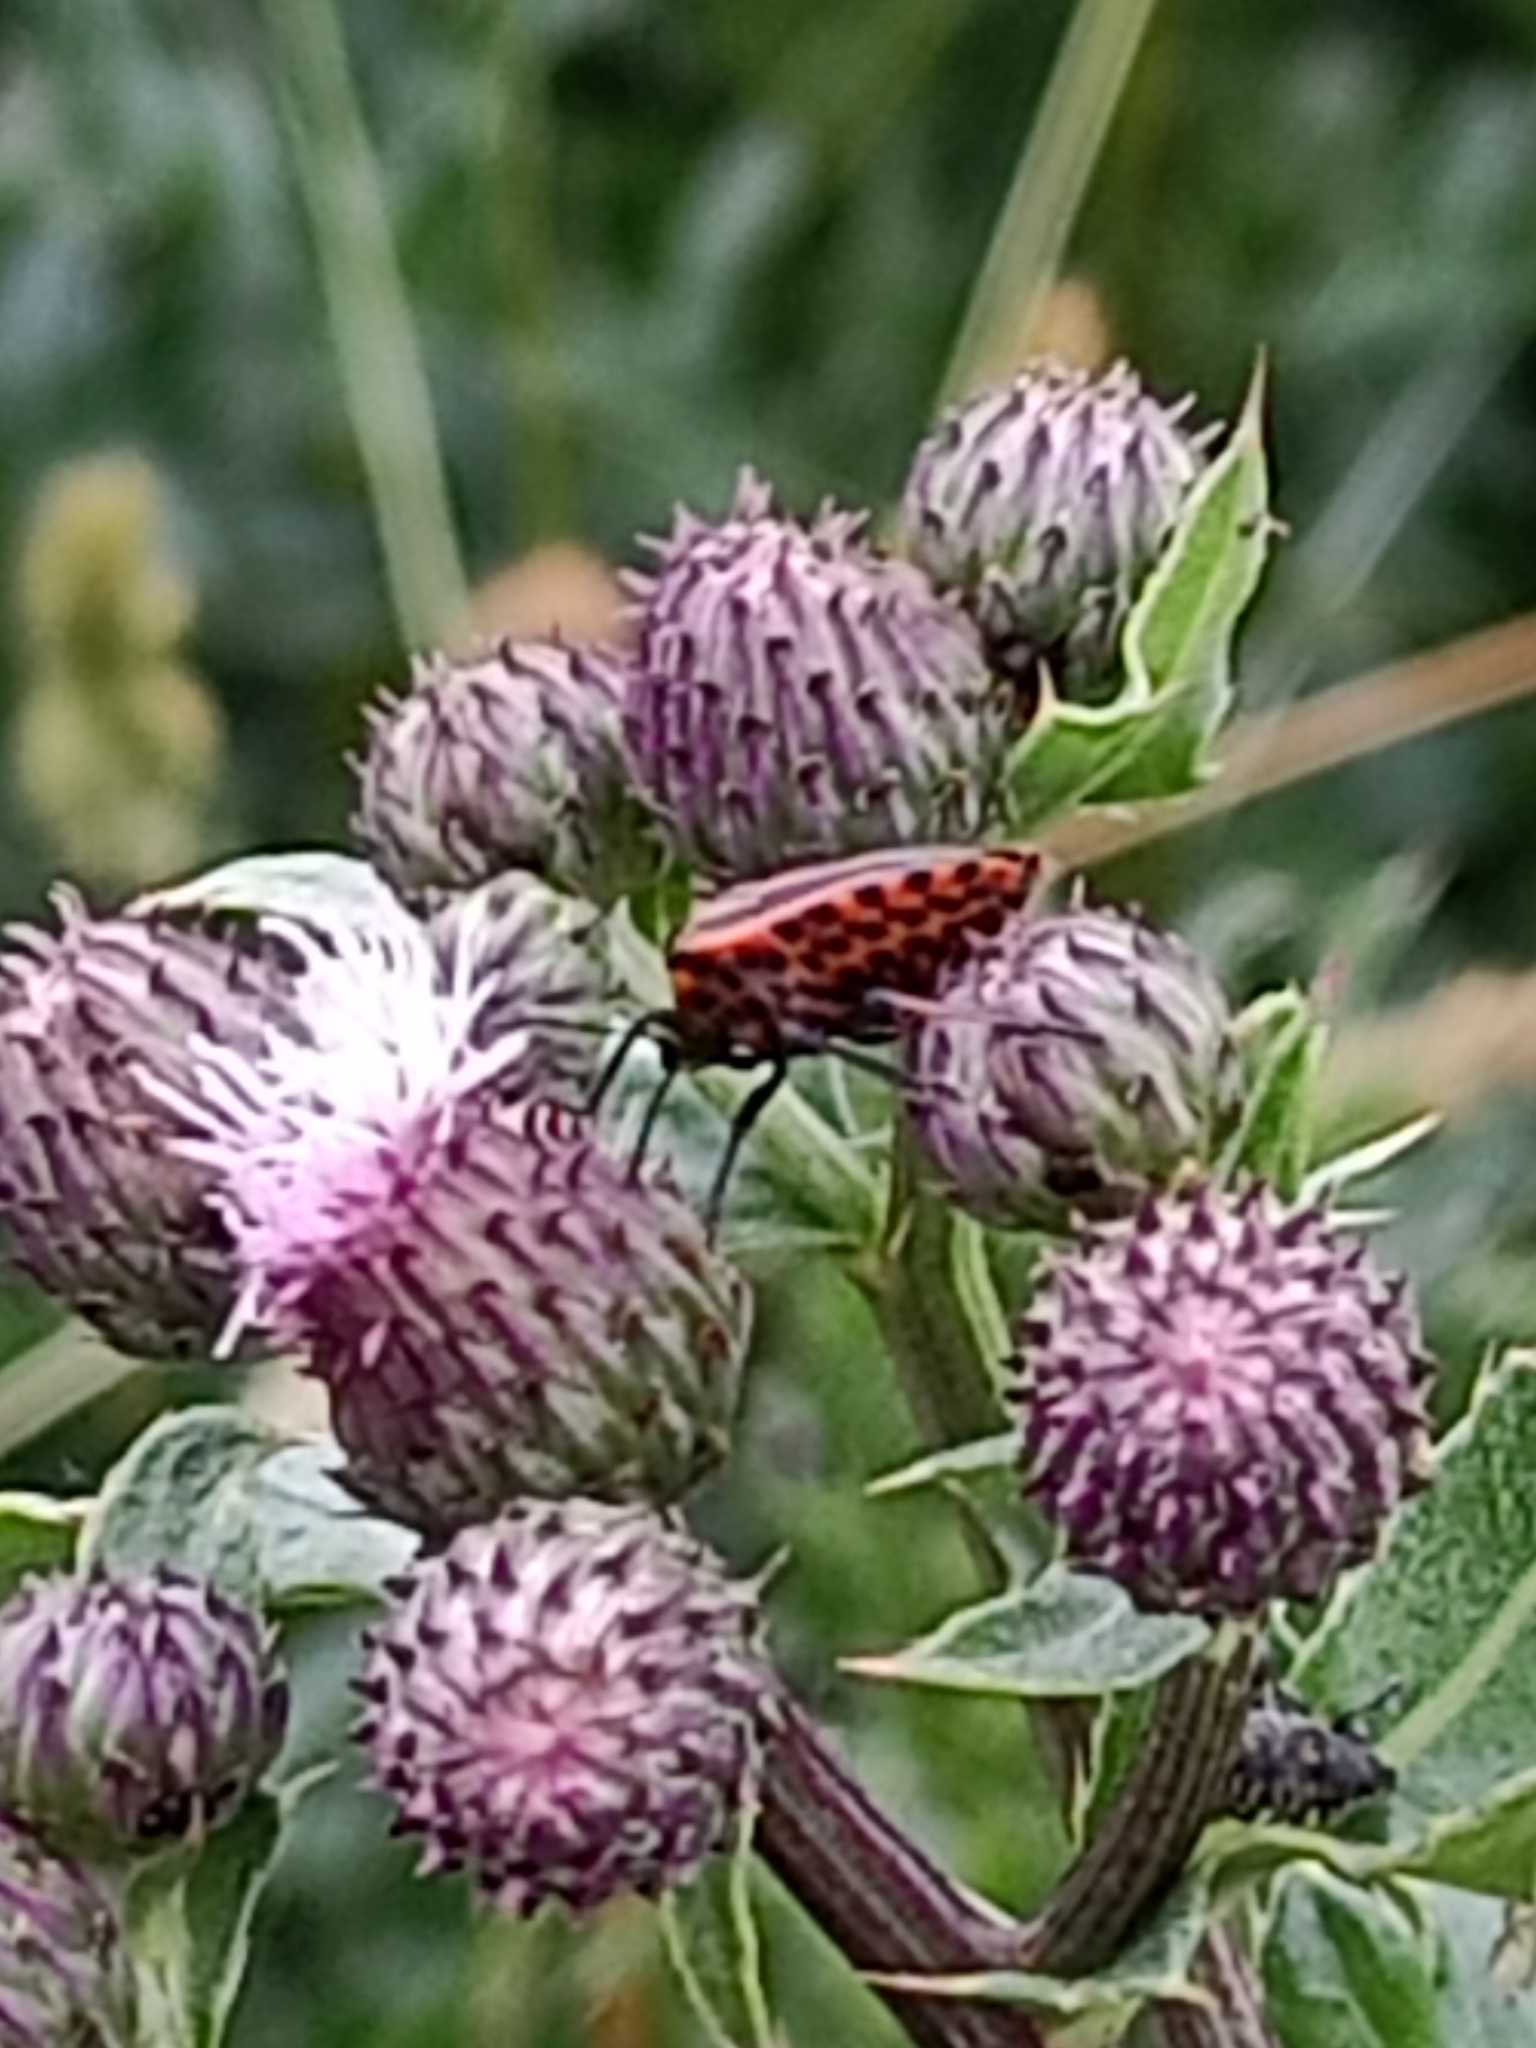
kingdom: Animalia
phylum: Arthropoda
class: Insecta
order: Hemiptera
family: Pentatomidae
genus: Graphosoma
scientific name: Graphosoma italicum
